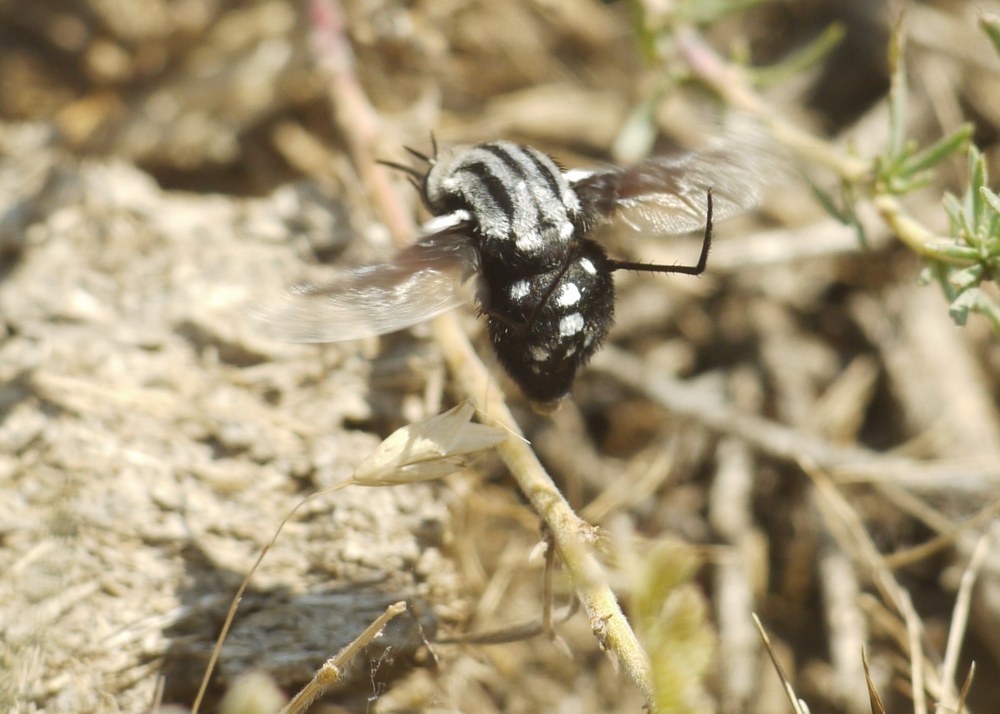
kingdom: Animalia
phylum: Arthropoda
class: Insecta
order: Diptera
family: Bombyliidae
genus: Bombomyia
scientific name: Bombomyia vertebralis
